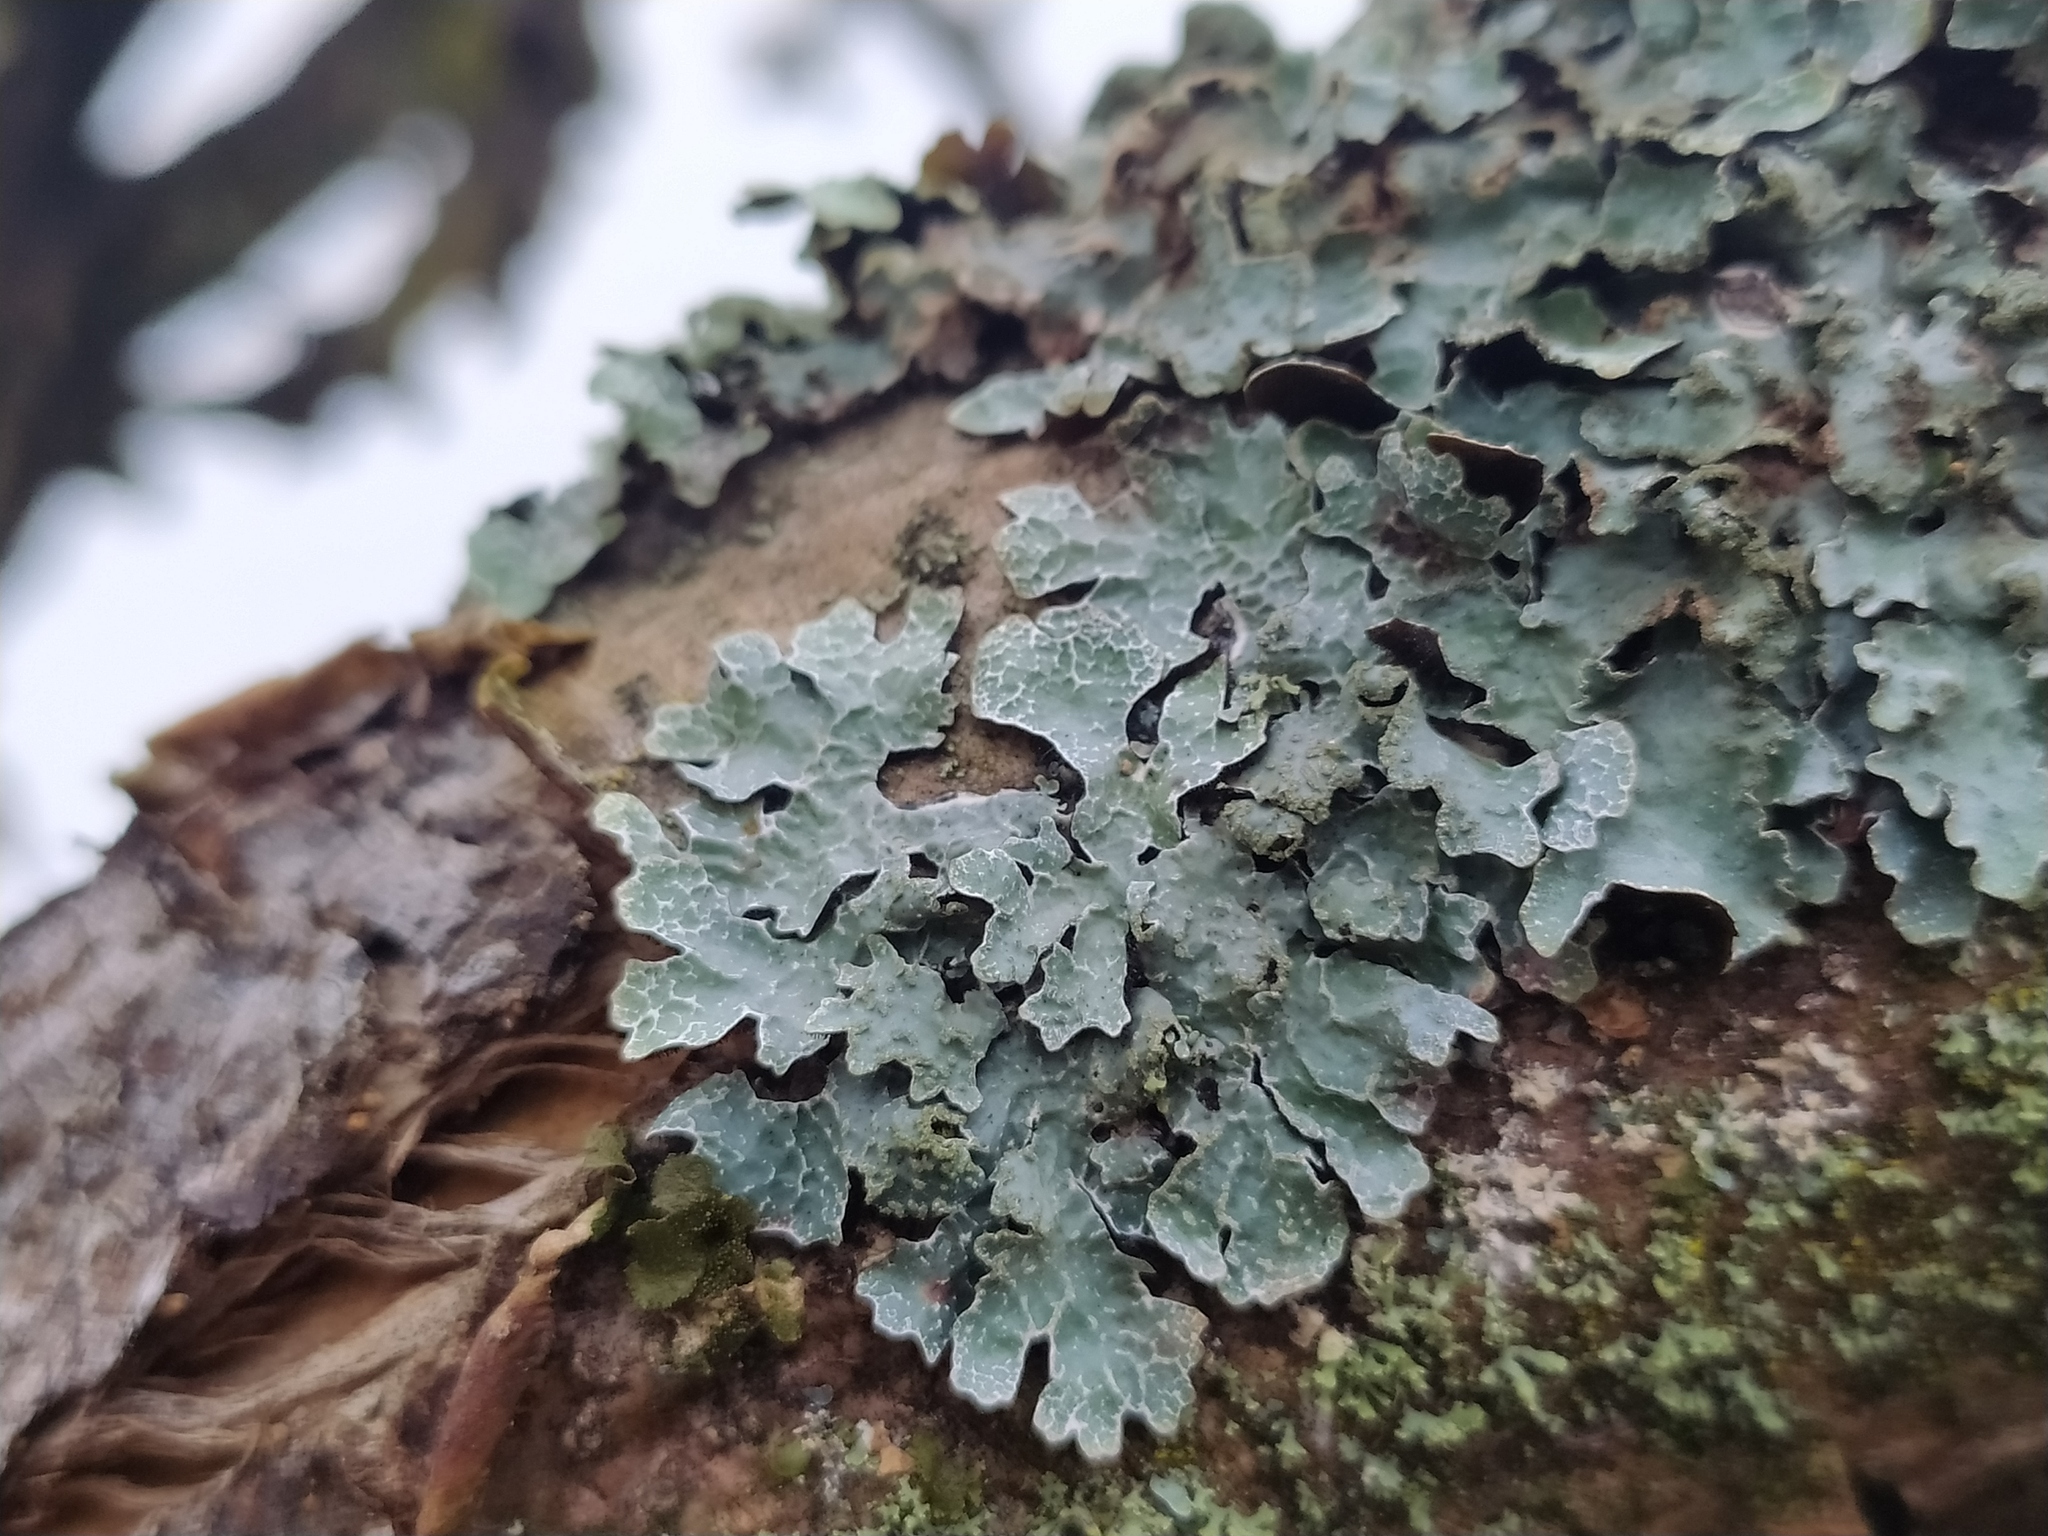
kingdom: Fungi
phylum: Ascomycota
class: Lecanoromycetes
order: Lecanorales
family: Parmeliaceae
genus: Parmelia
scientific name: Parmelia sulcata
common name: Netted shield lichen
